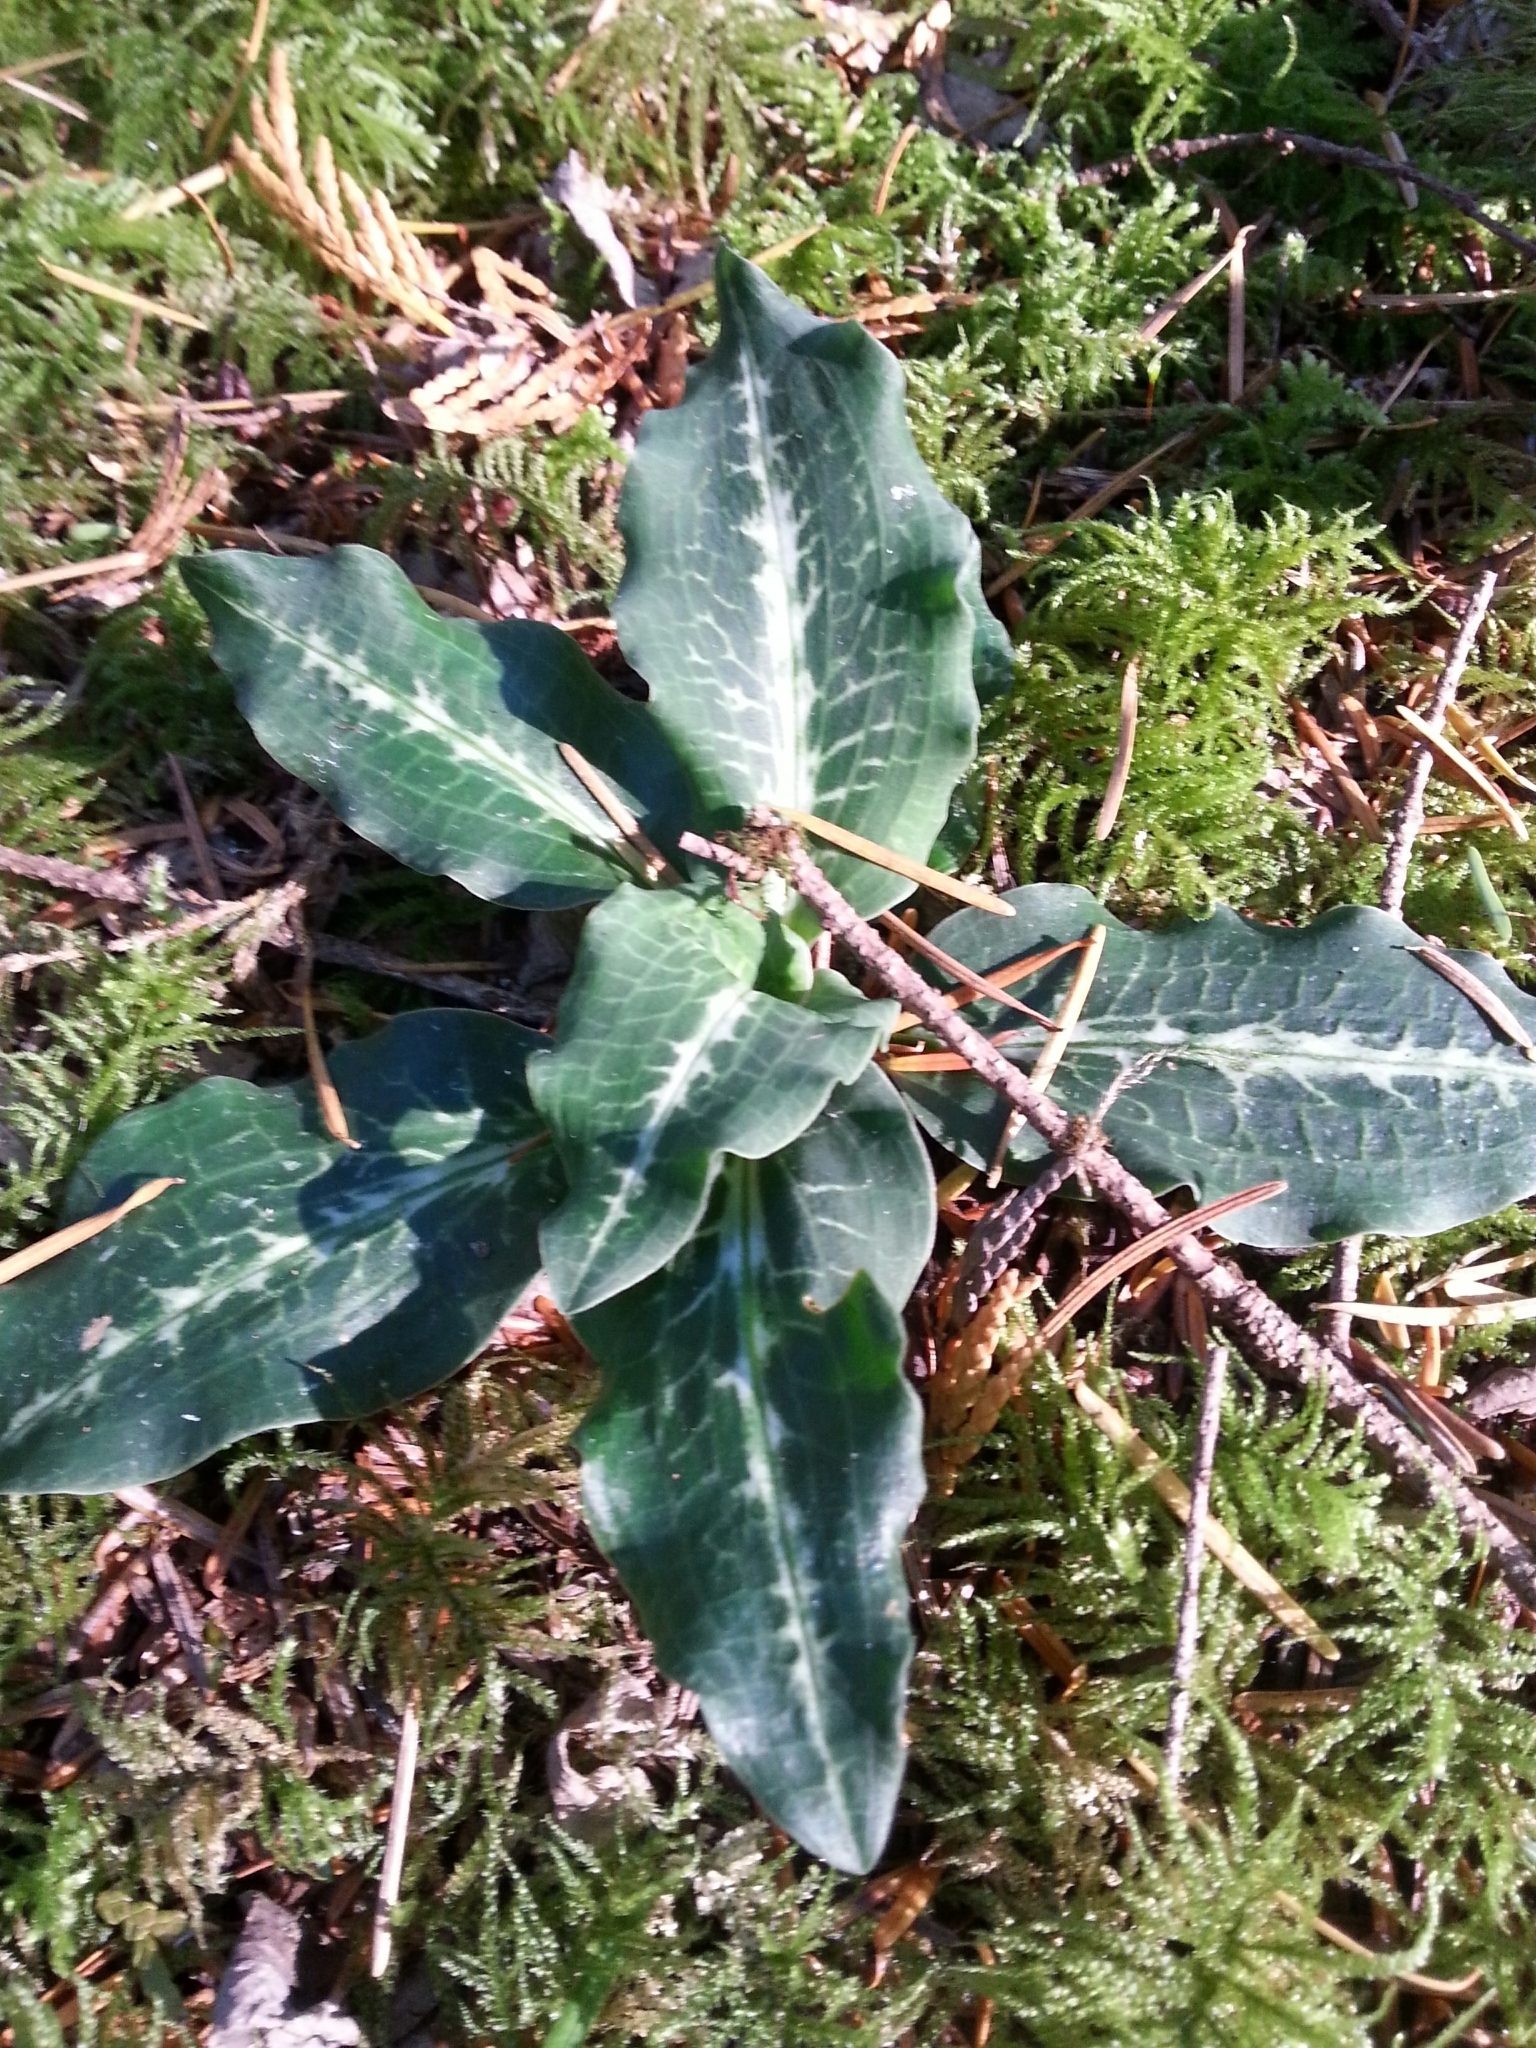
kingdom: Plantae
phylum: Tracheophyta
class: Liliopsida
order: Asparagales
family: Orchidaceae
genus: Goodyera
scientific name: Goodyera oblongifolia
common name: Giant rattlesnake-plantain
